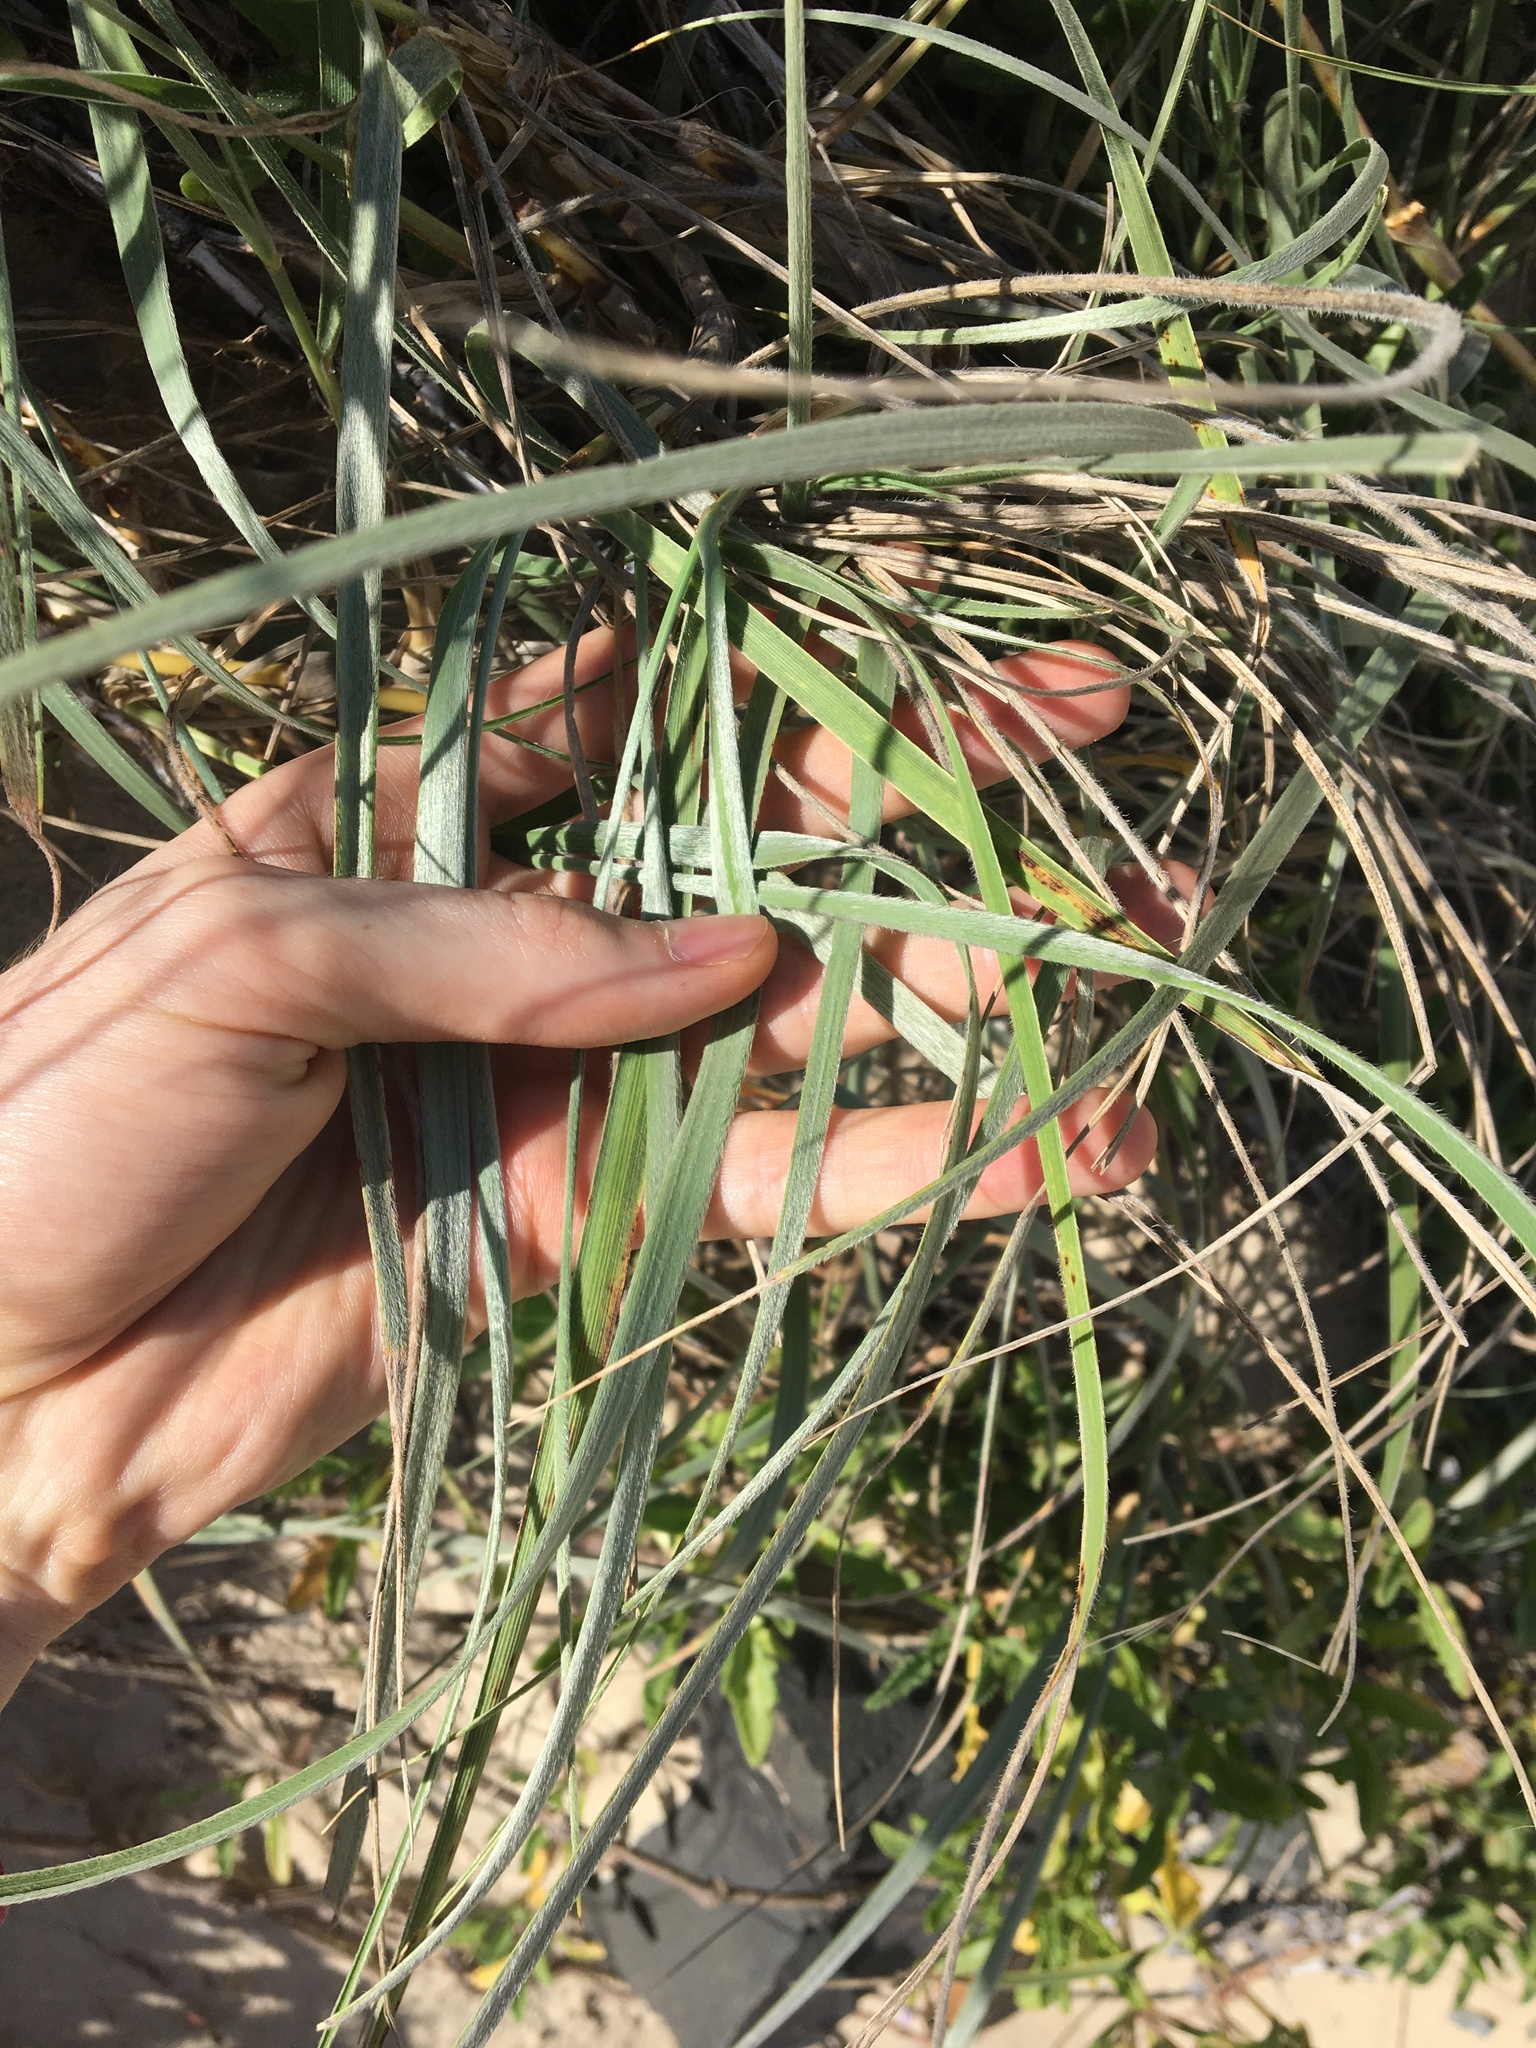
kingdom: Plantae
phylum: Tracheophyta
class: Liliopsida
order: Poales
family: Poaceae
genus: Spinifex
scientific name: Spinifex sericeus
